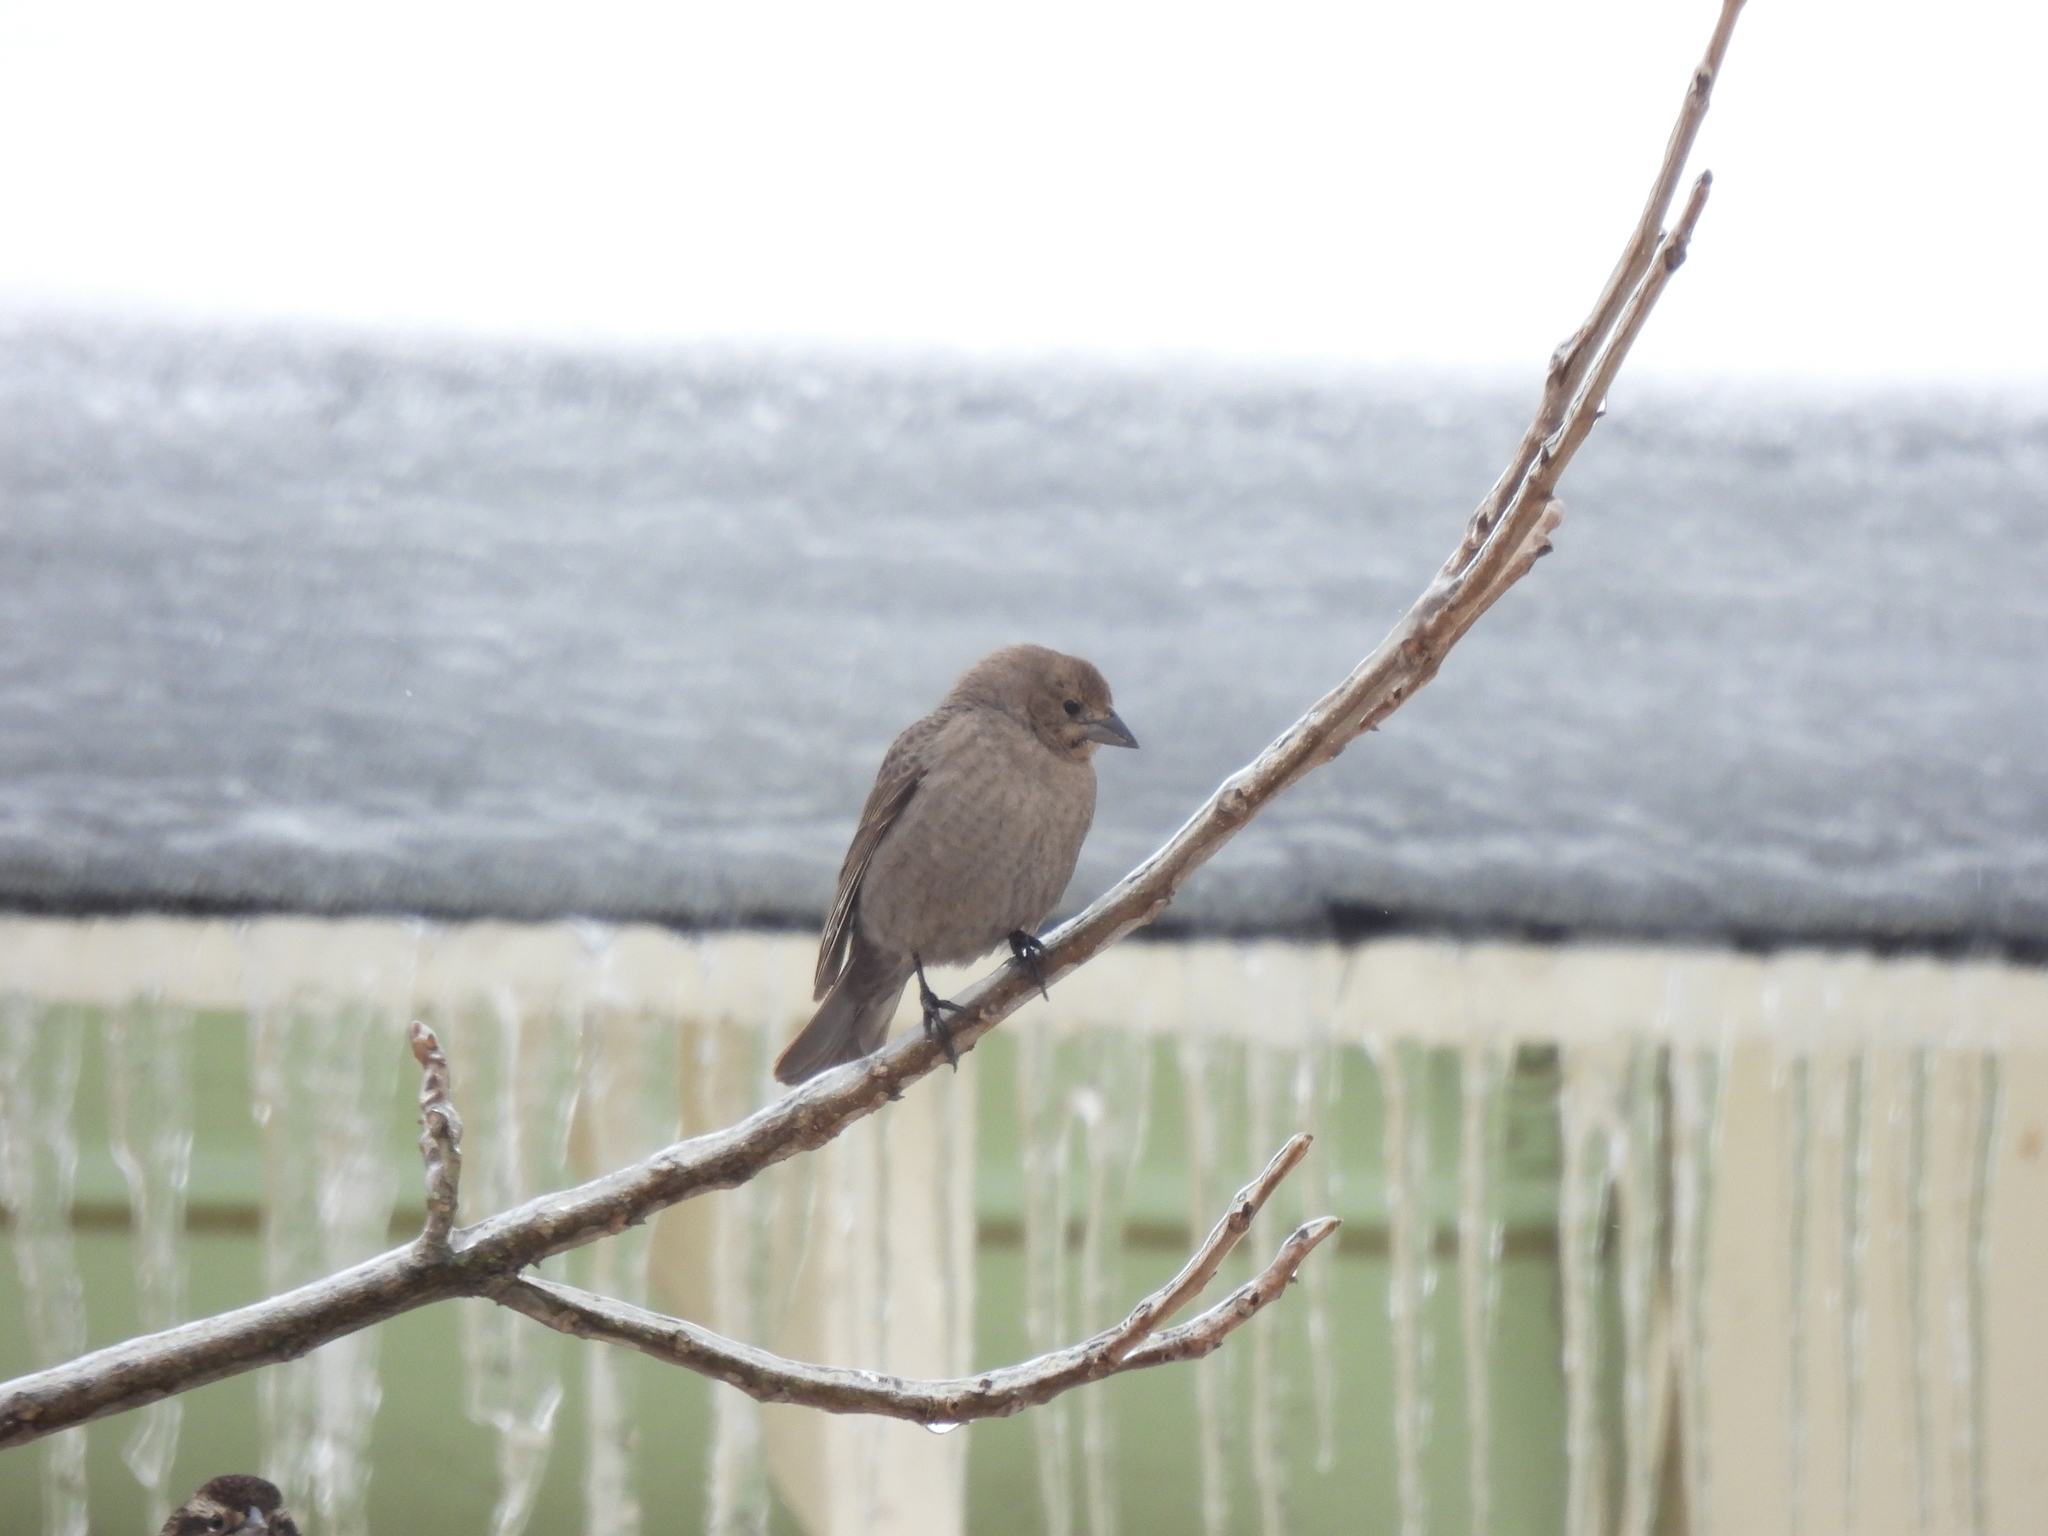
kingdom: Animalia
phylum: Chordata
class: Aves
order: Passeriformes
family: Icteridae
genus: Molothrus
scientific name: Molothrus ater
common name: Brown-headed cowbird
